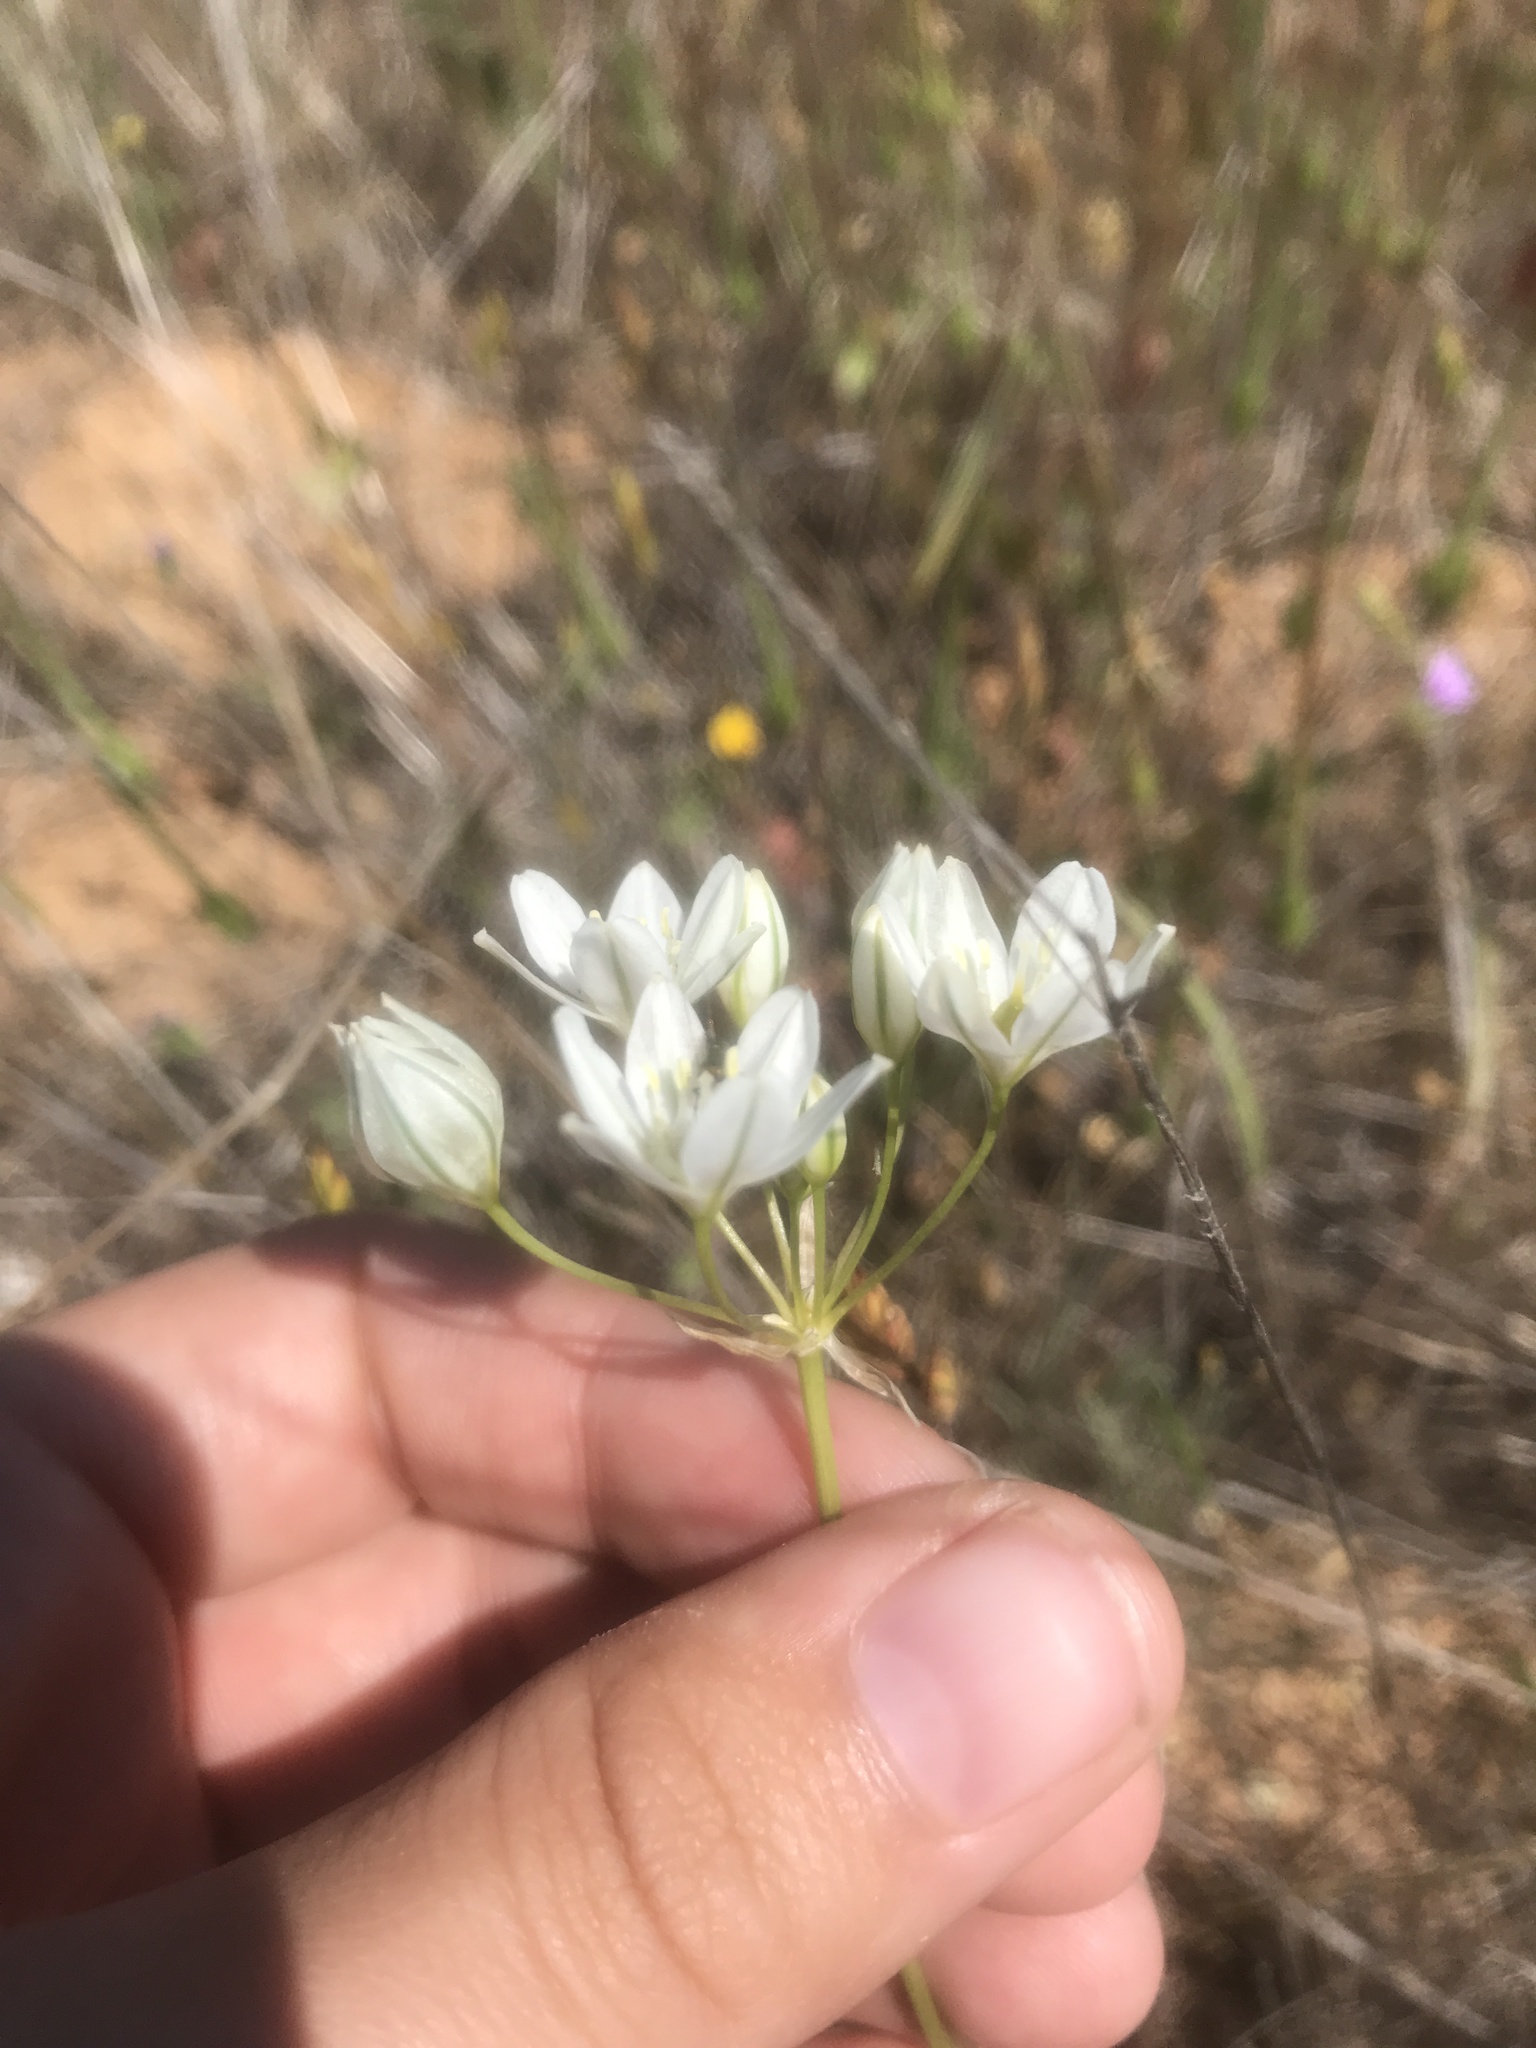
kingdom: Plantae
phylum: Tracheophyta
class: Liliopsida
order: Asparagales
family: Asparagaceae
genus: Triteleia
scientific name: Triteleia hyacinthina
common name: White brodiaea
